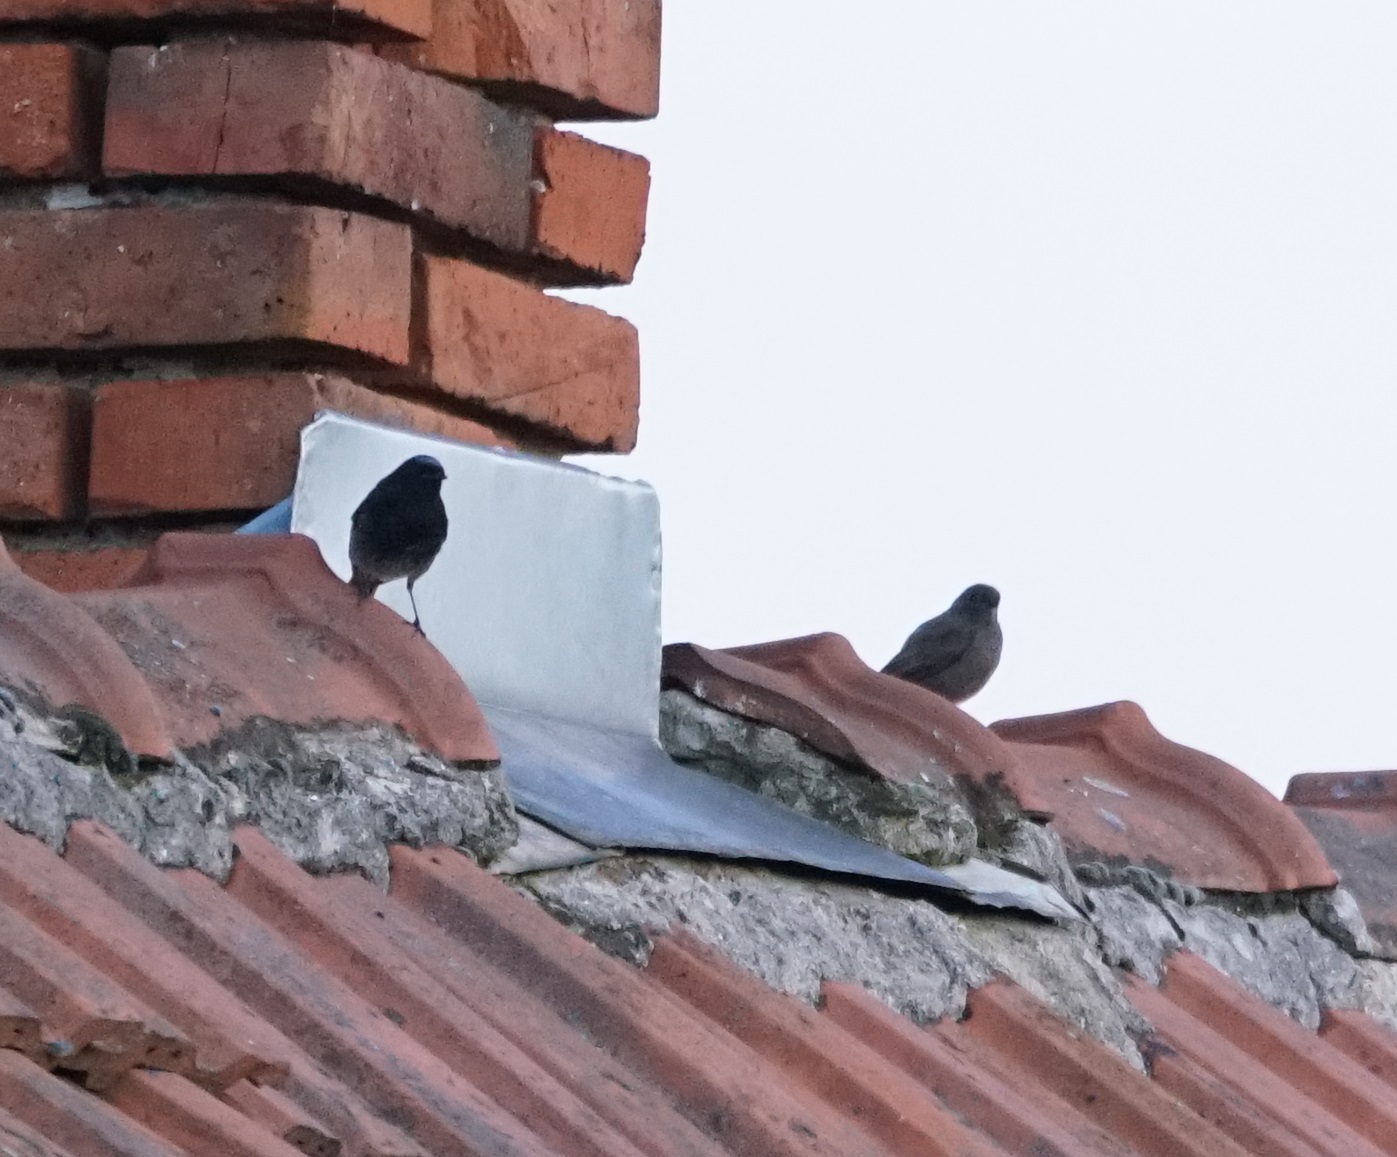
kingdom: Animalia
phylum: Chordata
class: Aves
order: Passeriformes
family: Muscicapidae
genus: Phoenicurus
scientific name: Phoenicurus ochruros
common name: Black redstart
